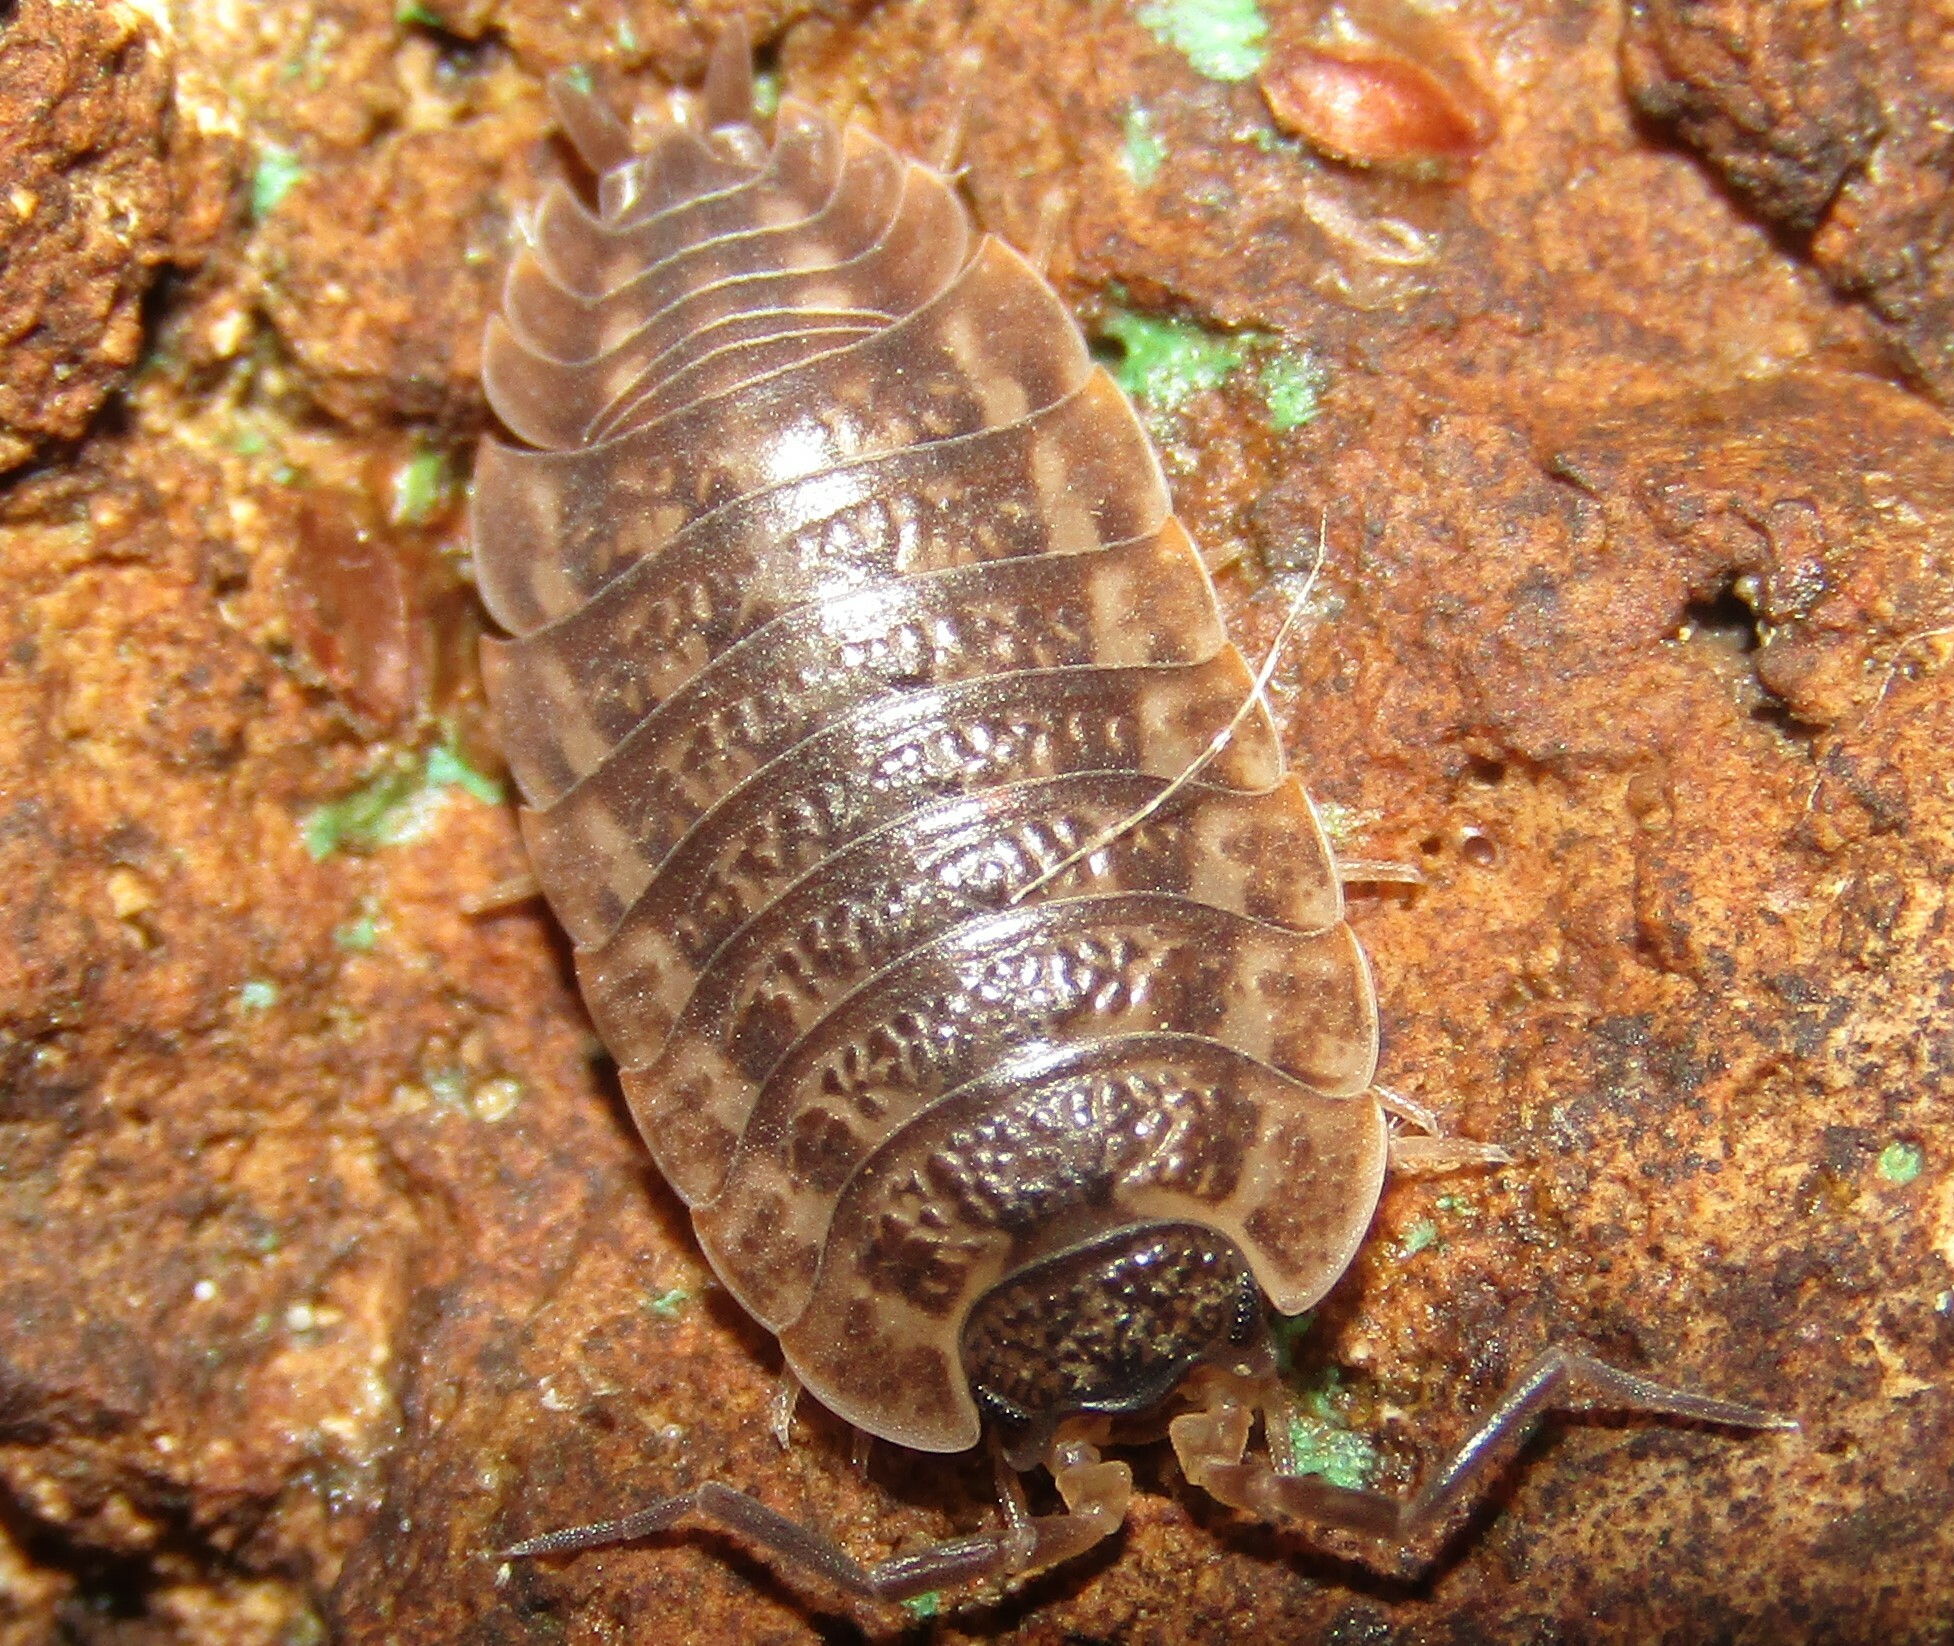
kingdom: Animalia
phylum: Arthropoda
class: Malacostraca
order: Isopoda
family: Trachelipodidae
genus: Trachelipus
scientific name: Trachelipus rathkii
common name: Isopod
